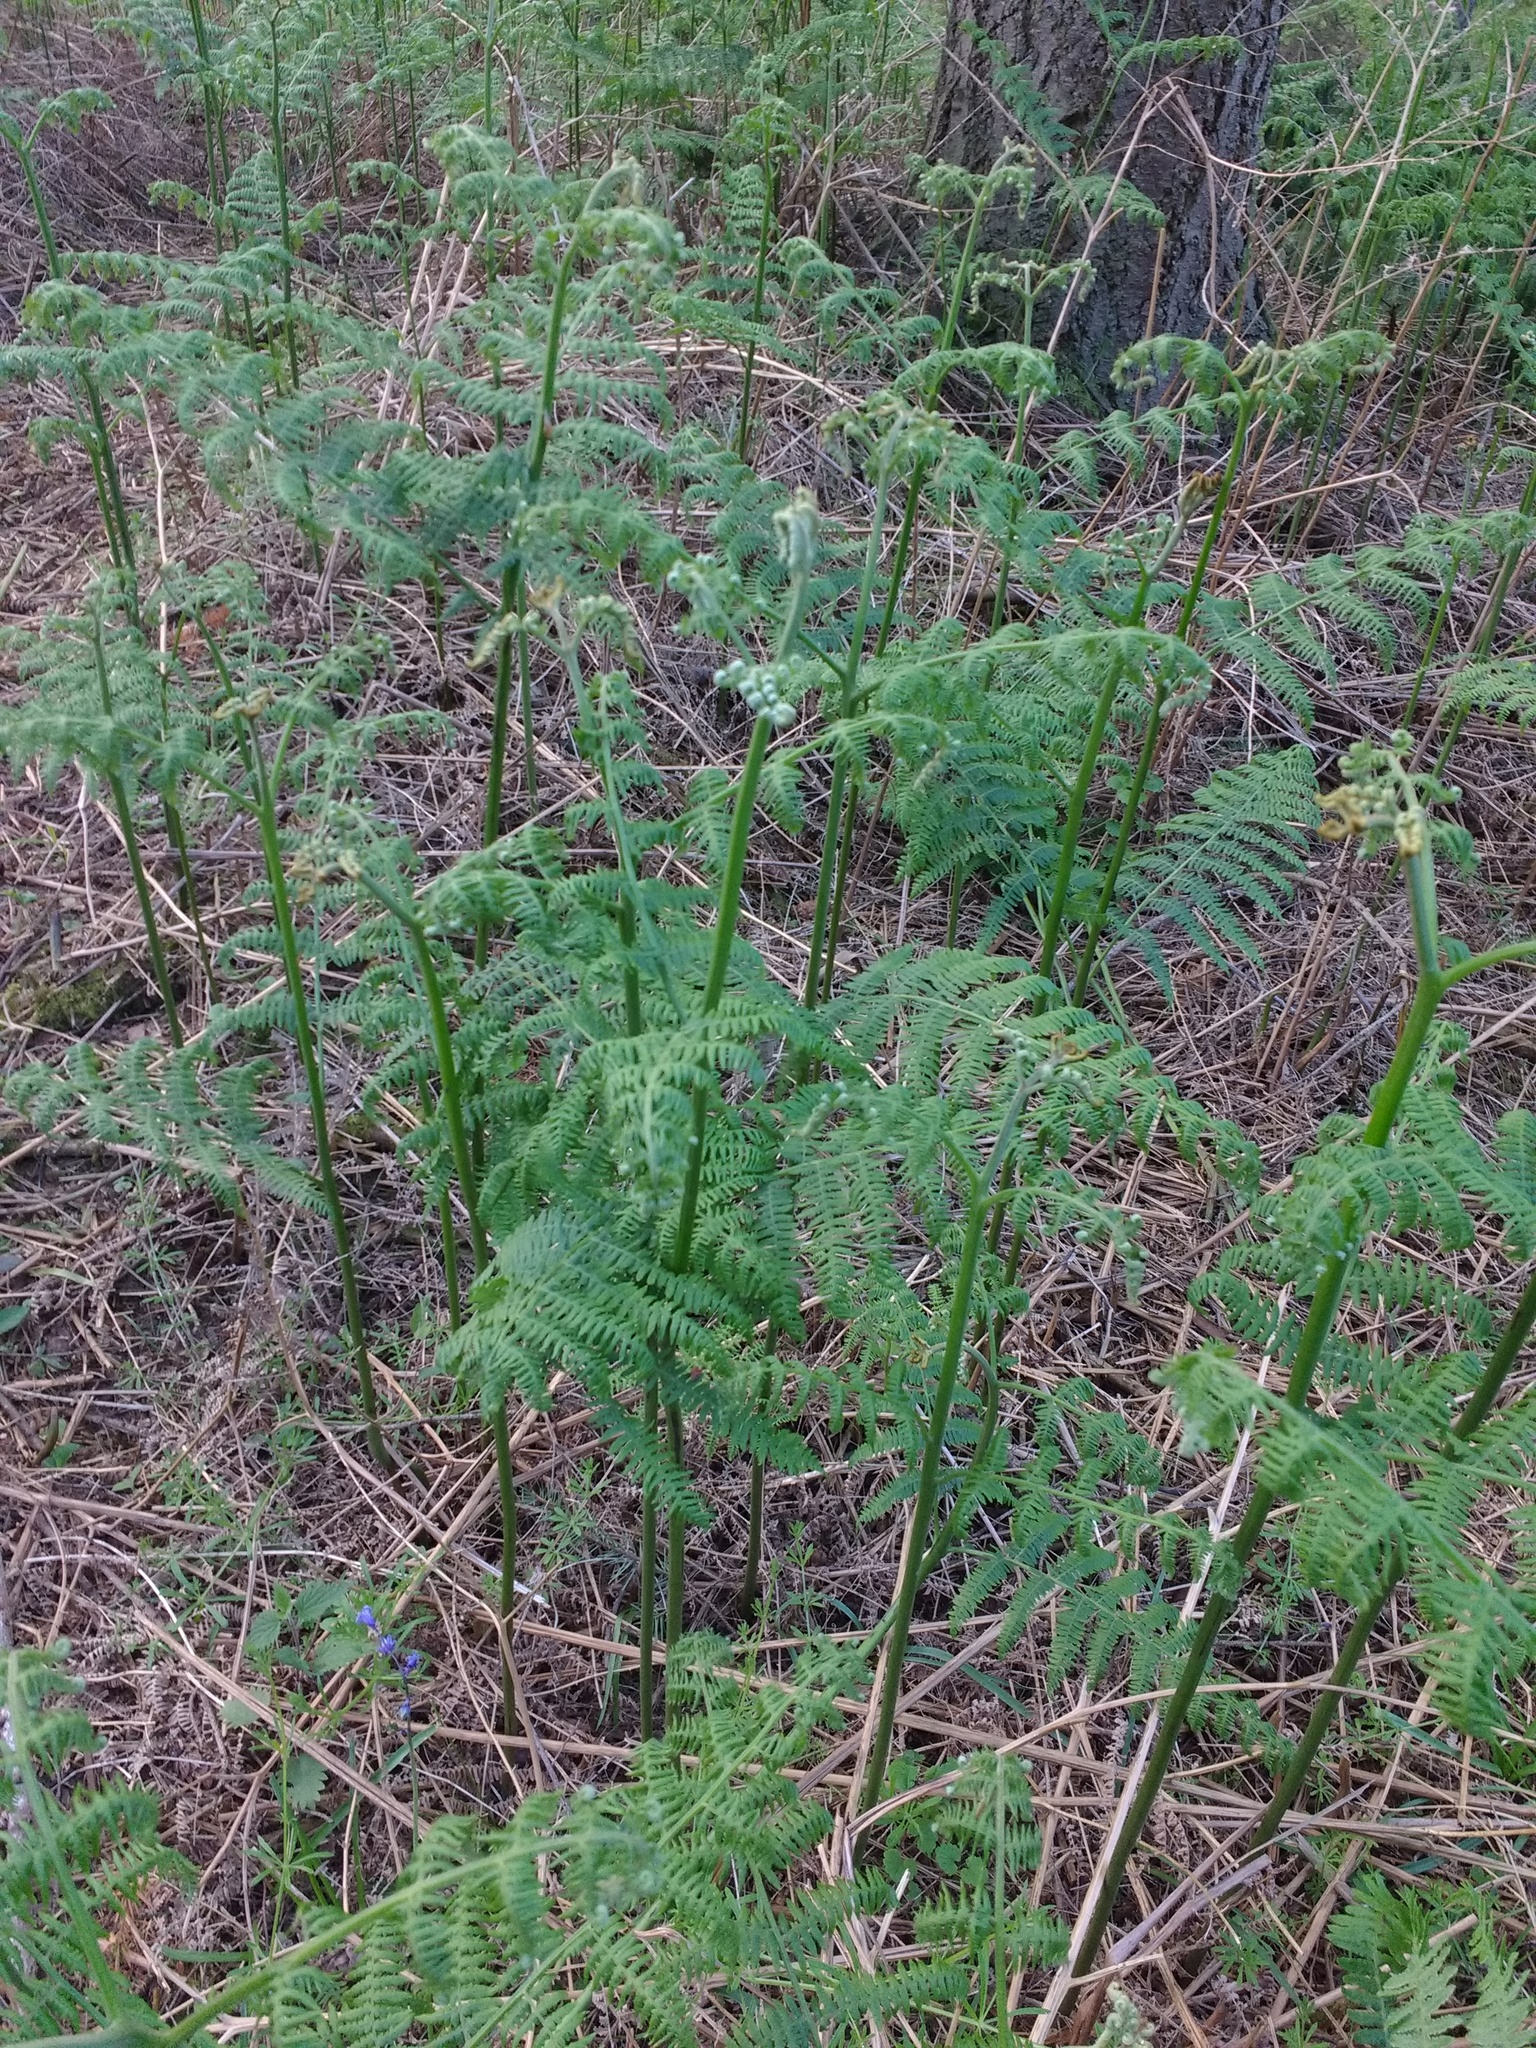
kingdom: Plantae
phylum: Tracheophyta
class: Polypodiopsida
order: Polypodiales
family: Dennstaedtiaceae
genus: Pteridium
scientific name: Pteridium aquilinum
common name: Bracken
